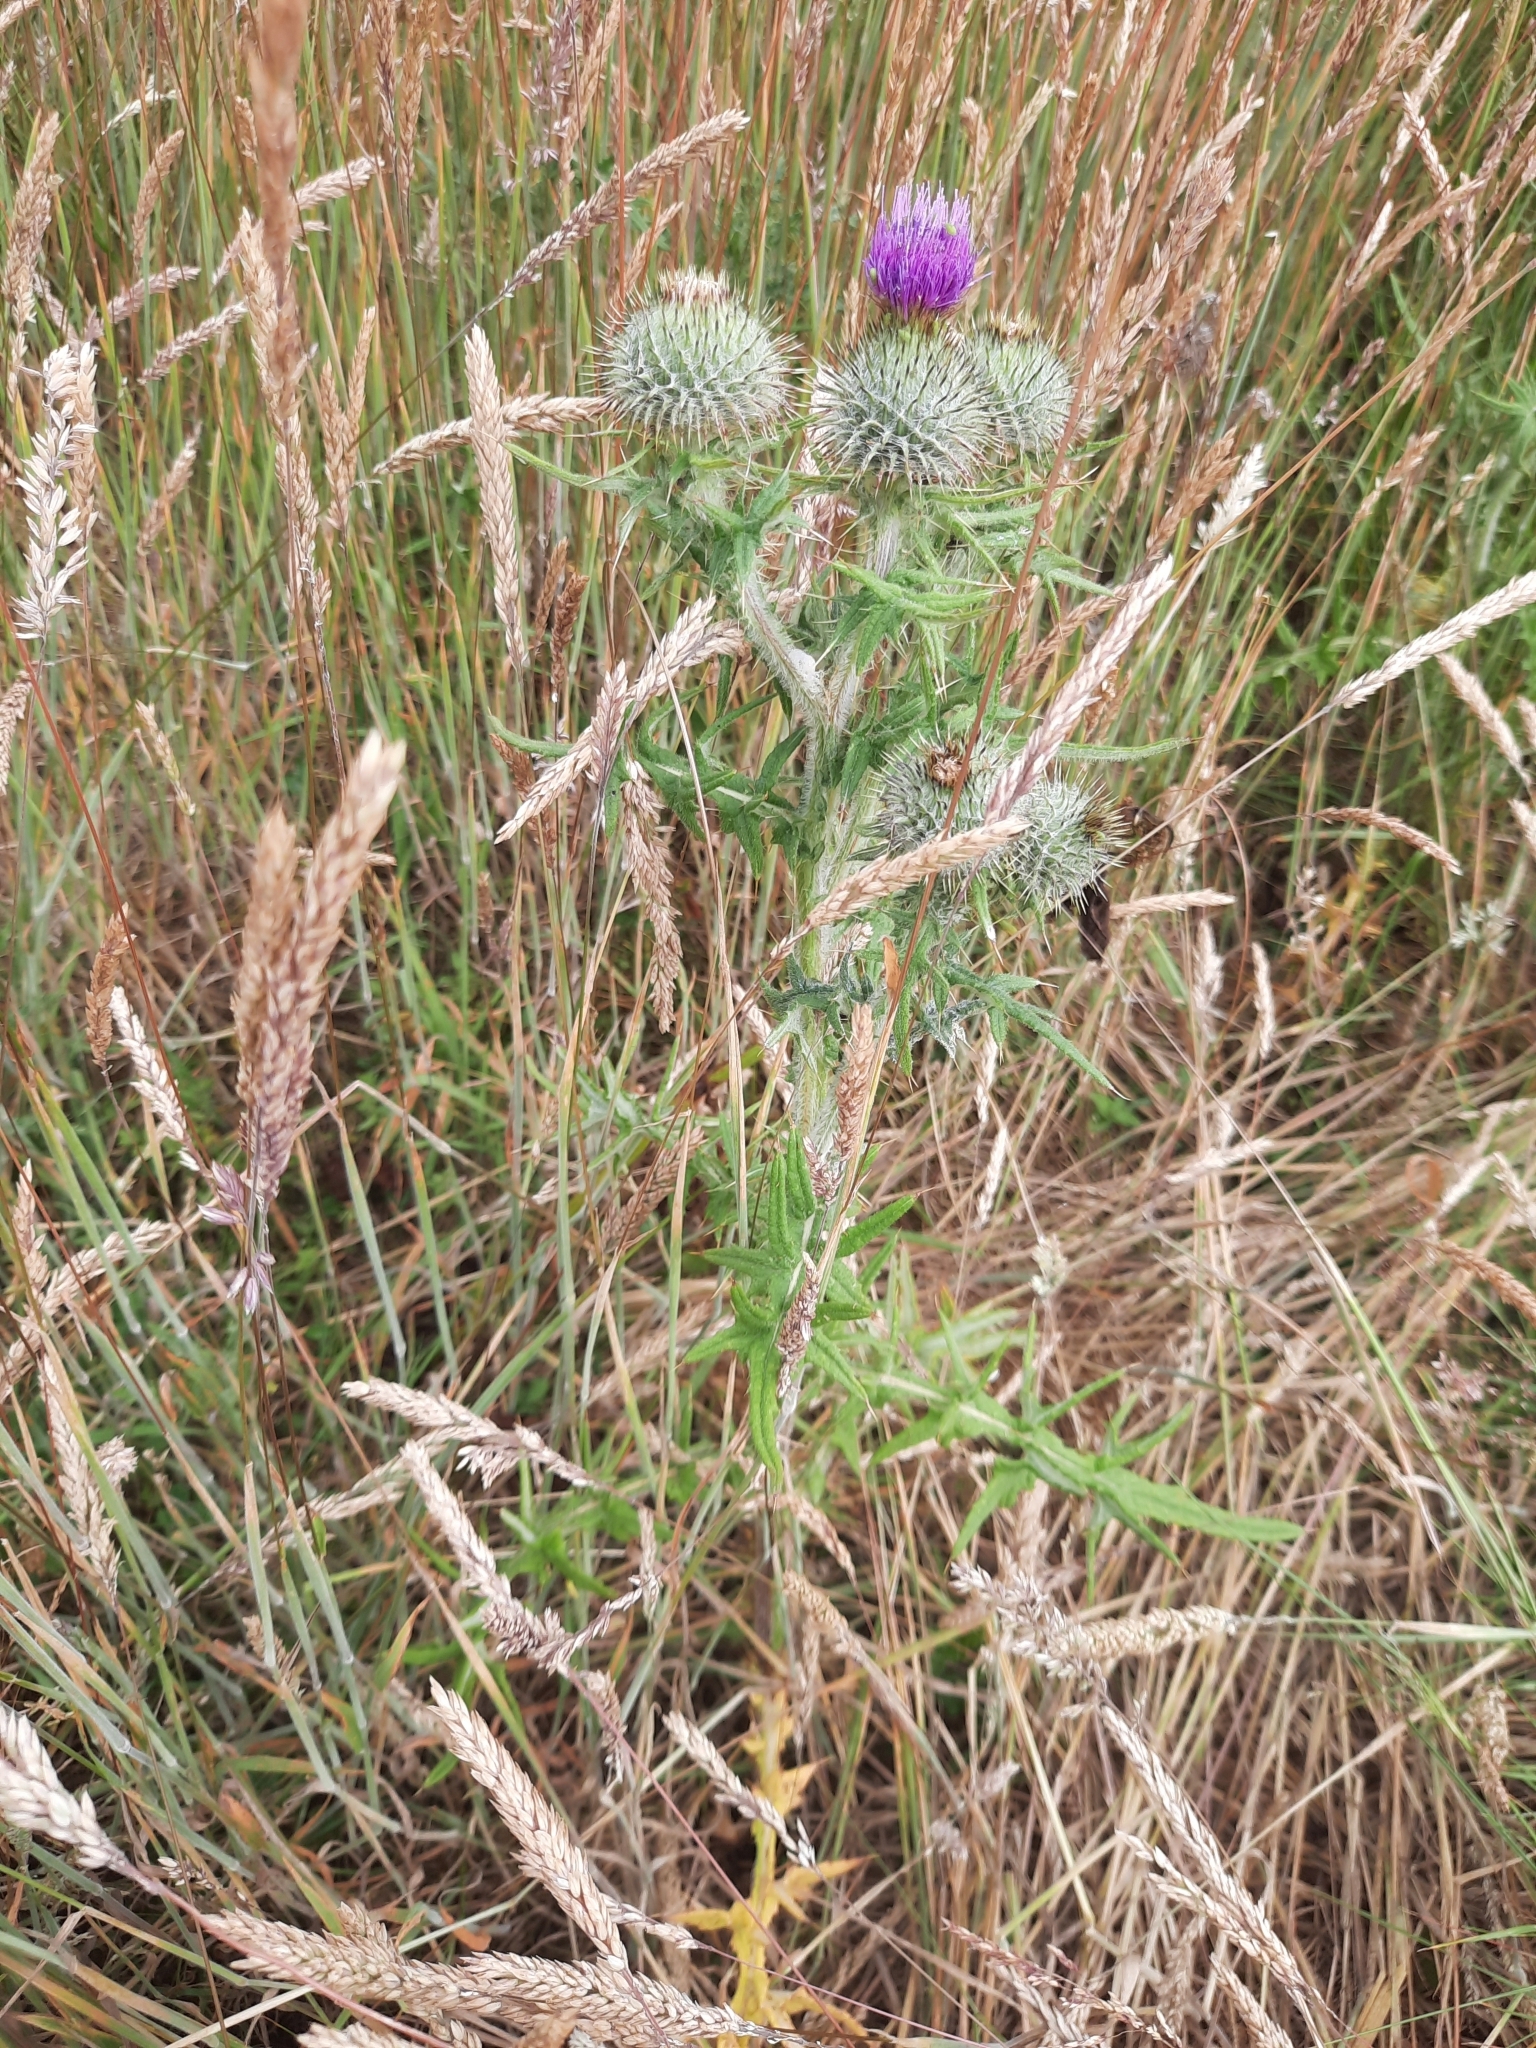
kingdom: Plantae
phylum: Tracheophyta
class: Magnoliopsida
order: Asterales
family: Asteraceae
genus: Cirsium
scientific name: Cirsium vulgare
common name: Bull thistle
